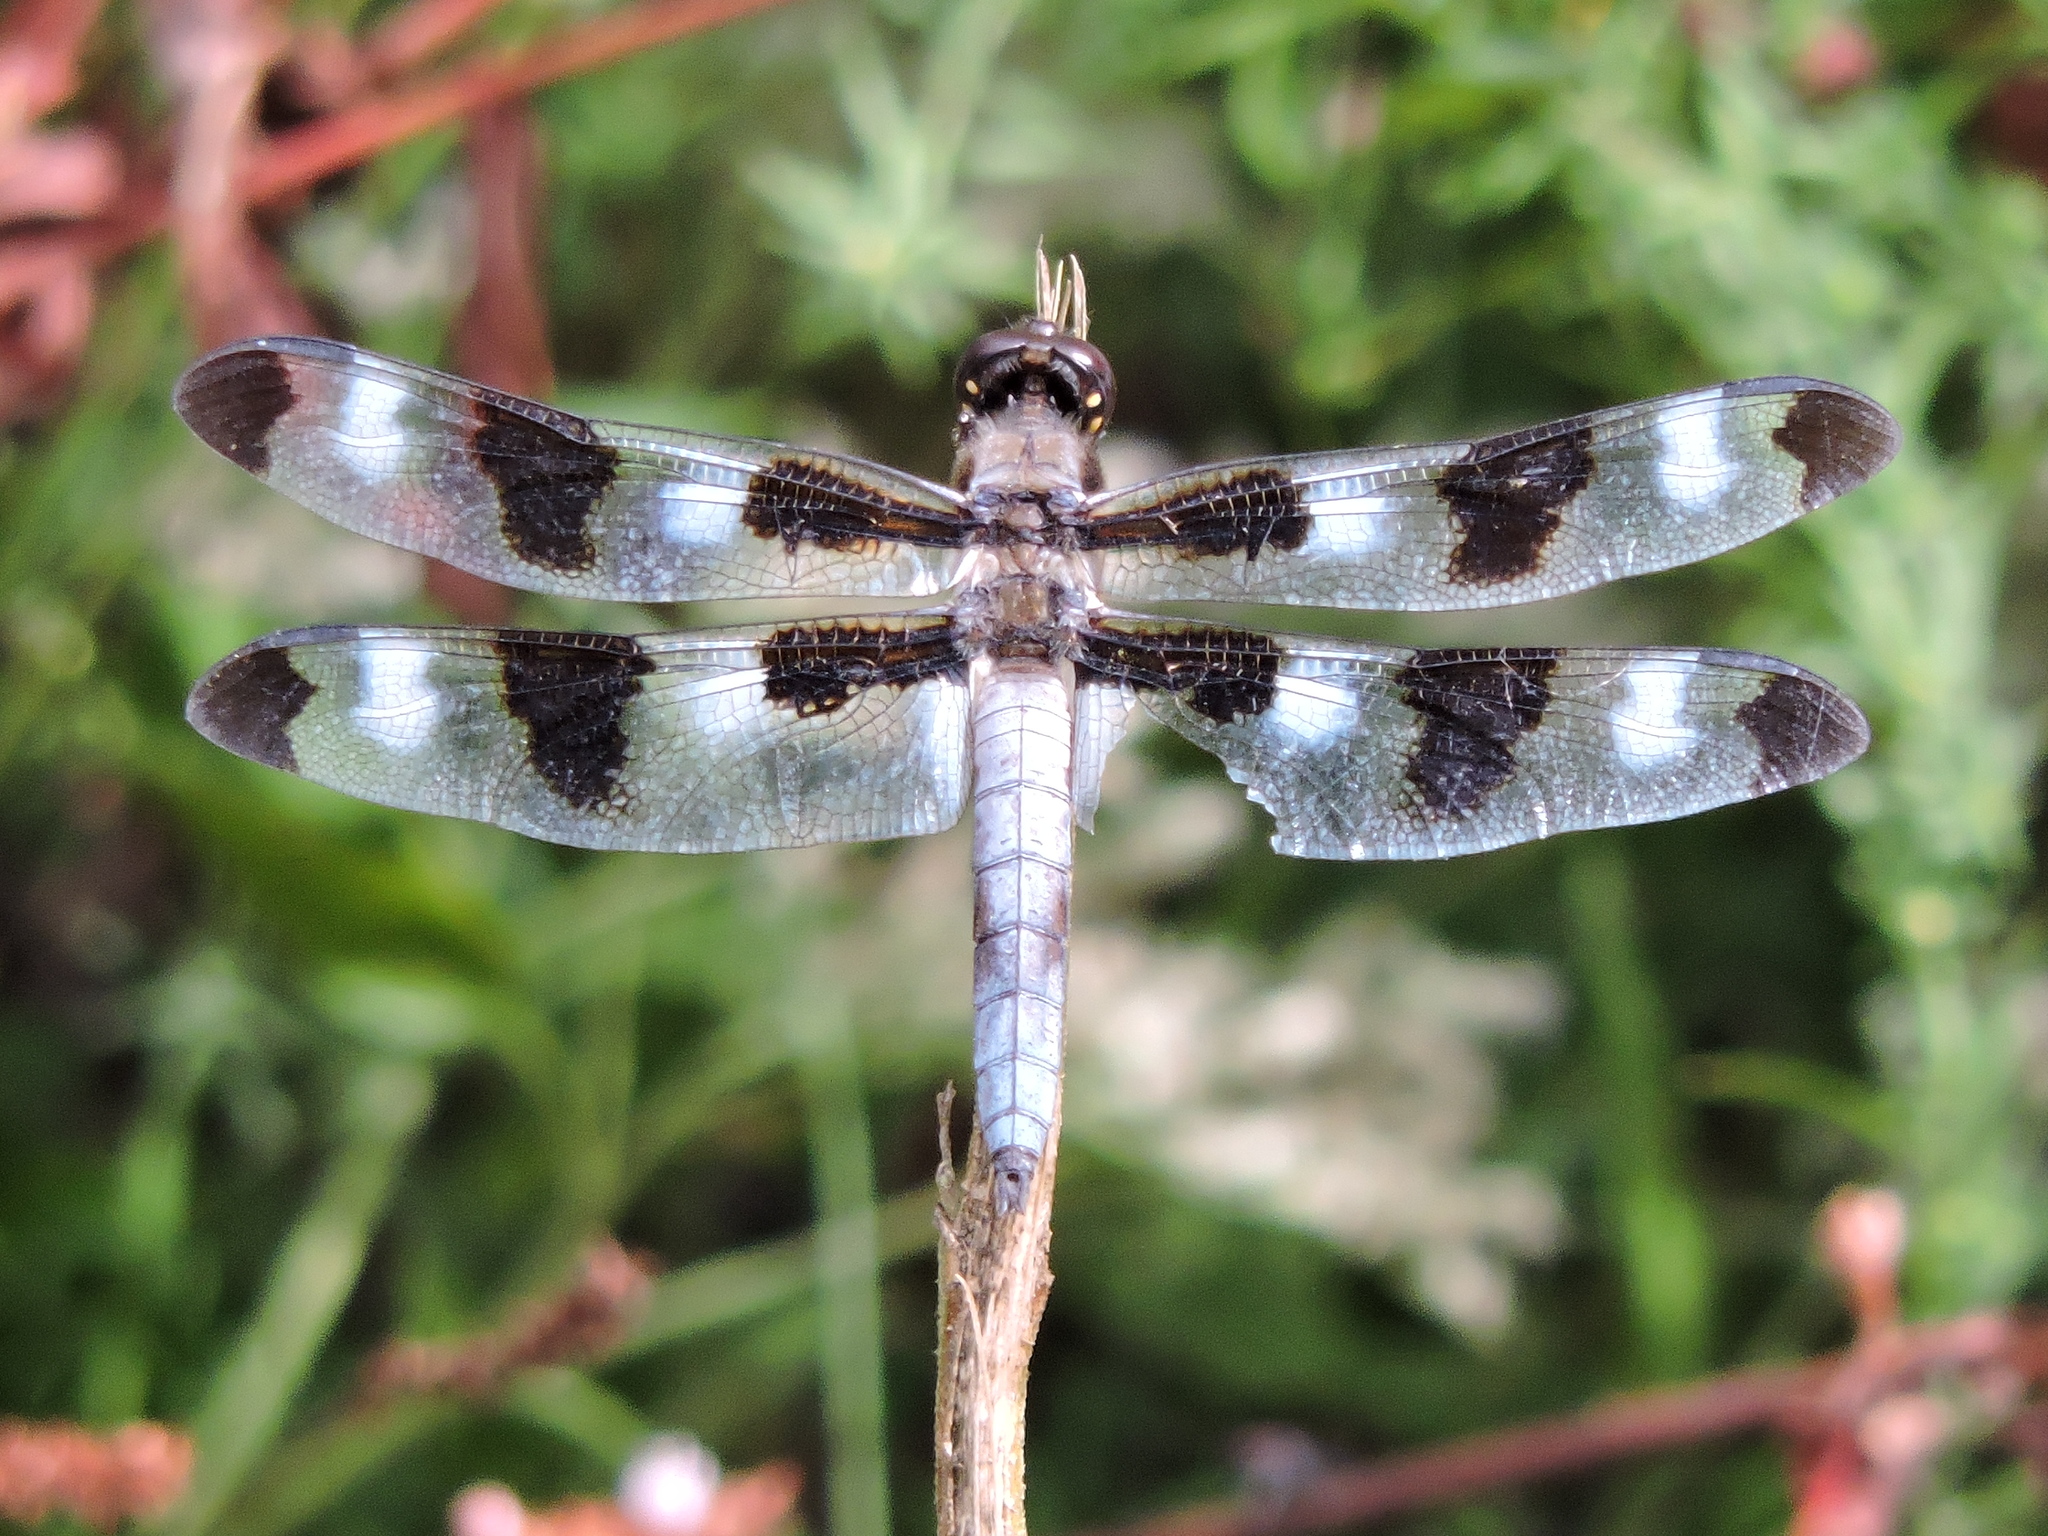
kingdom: Animalia
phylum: Arthropoda
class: Insecta
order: Odonata
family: Libellulidae
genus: Libellula
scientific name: Libellula pulchella
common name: Twelve-spotted skimmer
